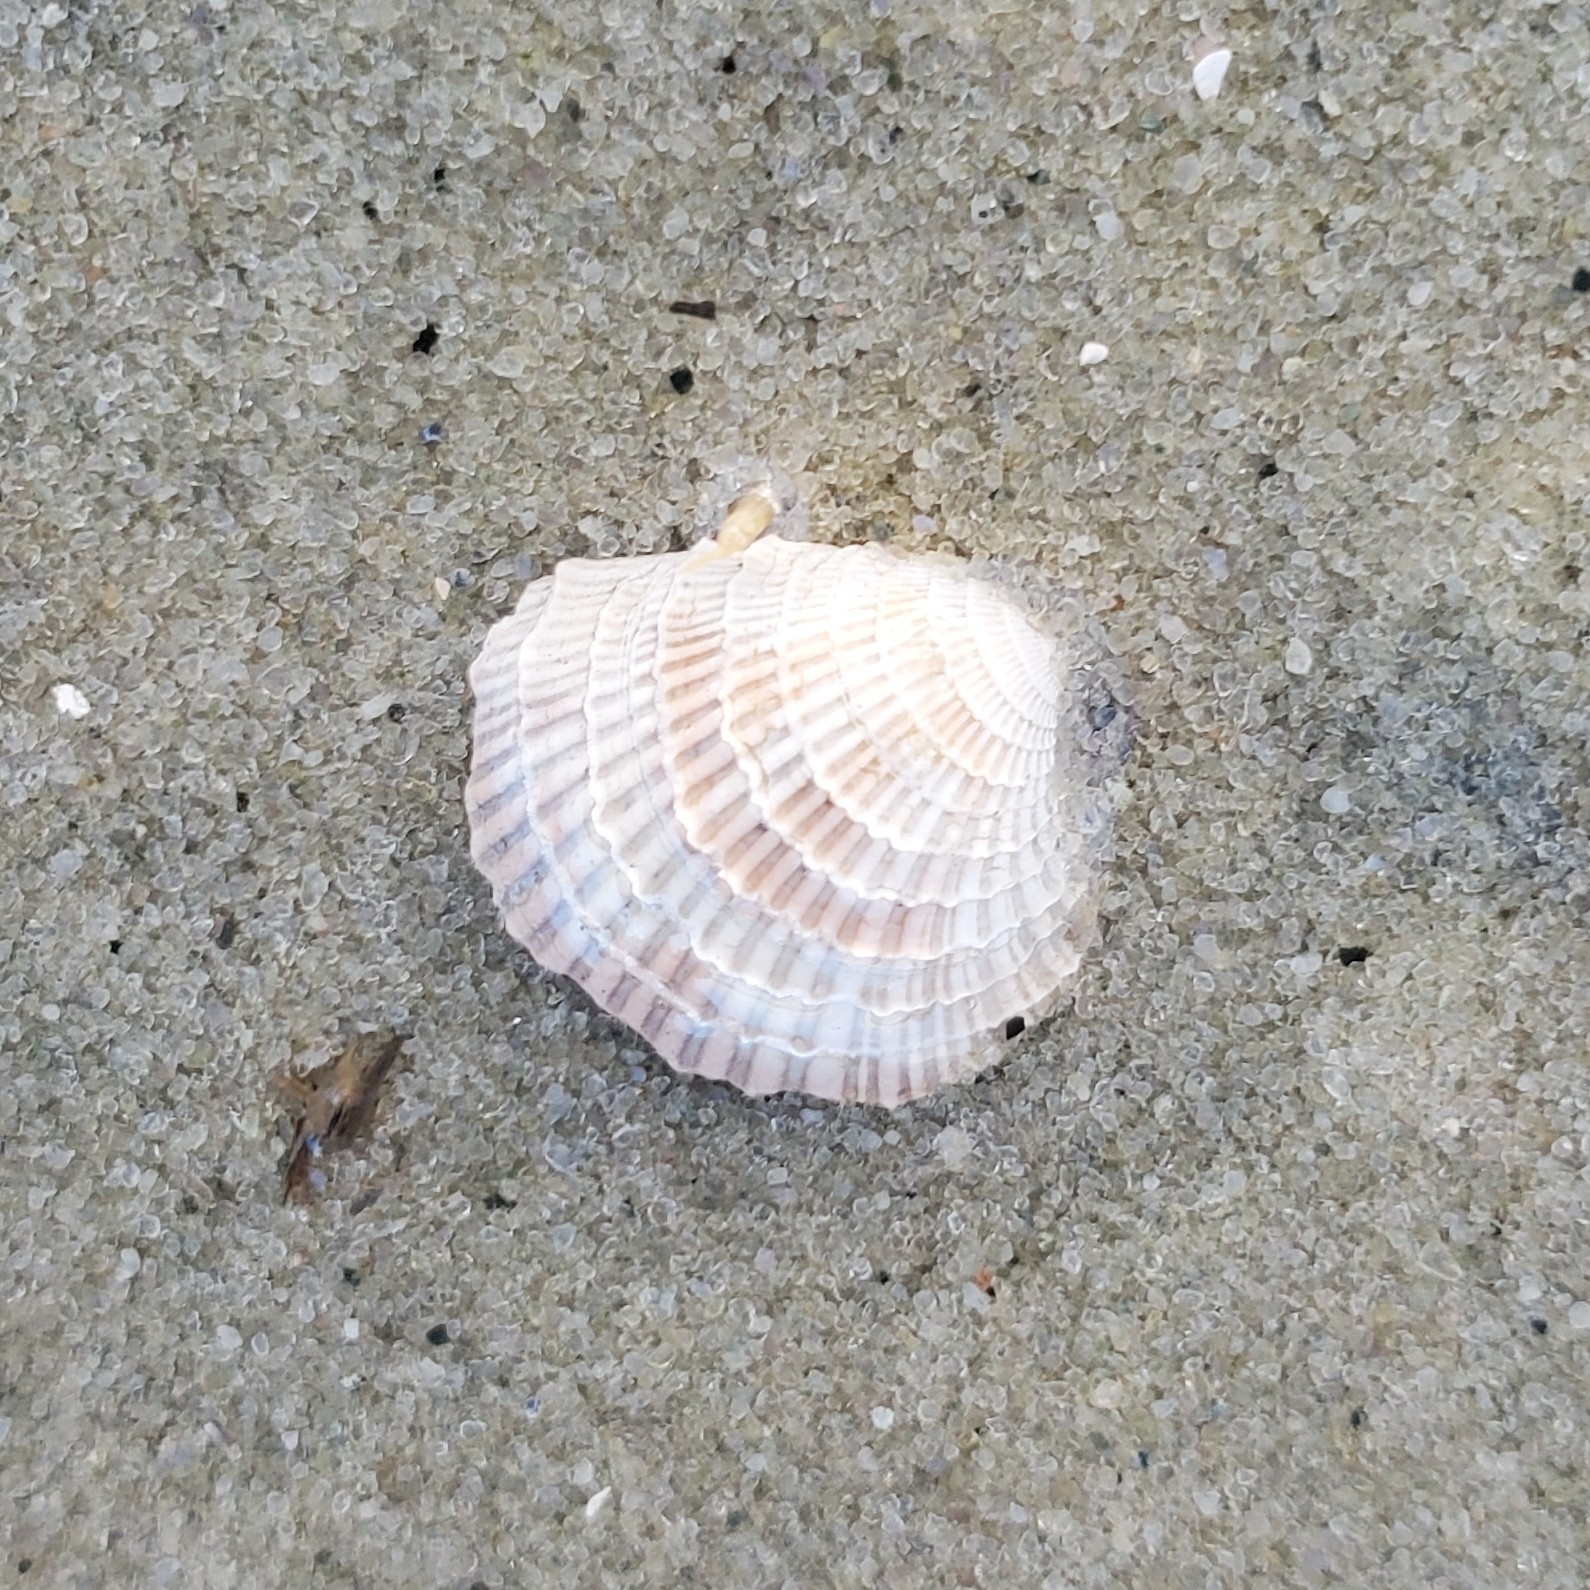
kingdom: Animalia
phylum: Mollusca
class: Bivalvia
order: Venerida
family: Veneridae
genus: Chione
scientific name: Chione elevata
